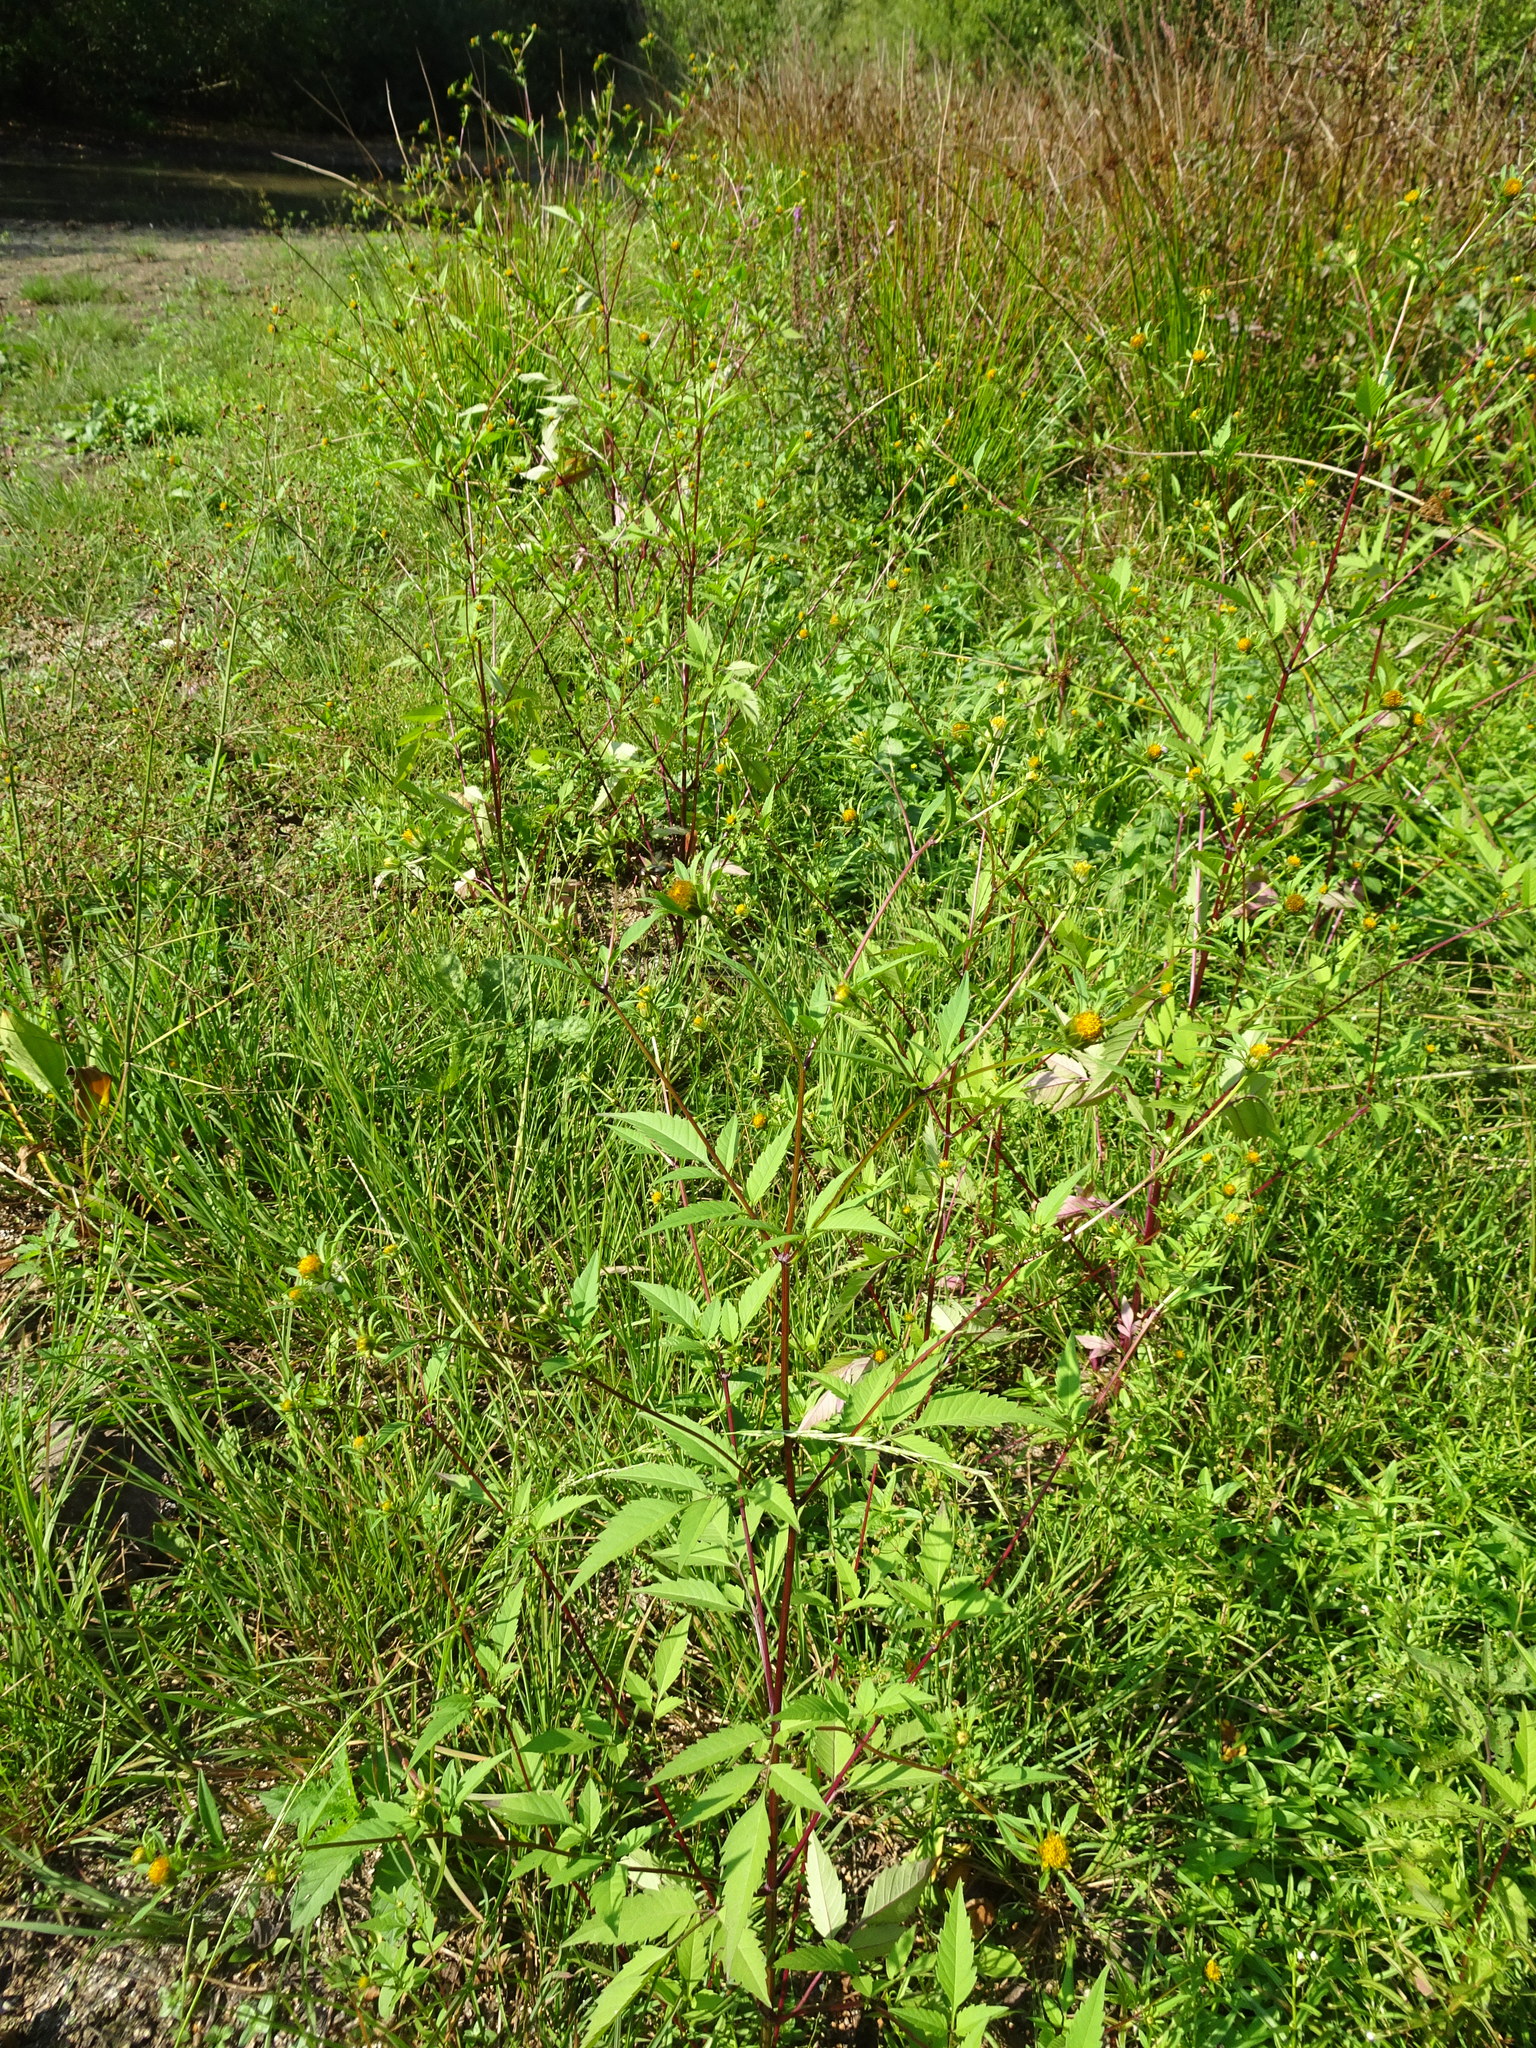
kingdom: Plantae
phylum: Tracheophyta
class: Magnoliopsida
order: Asterales
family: Asteraceae
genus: Bidens
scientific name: Bidens frondosa
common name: Beggarticks
